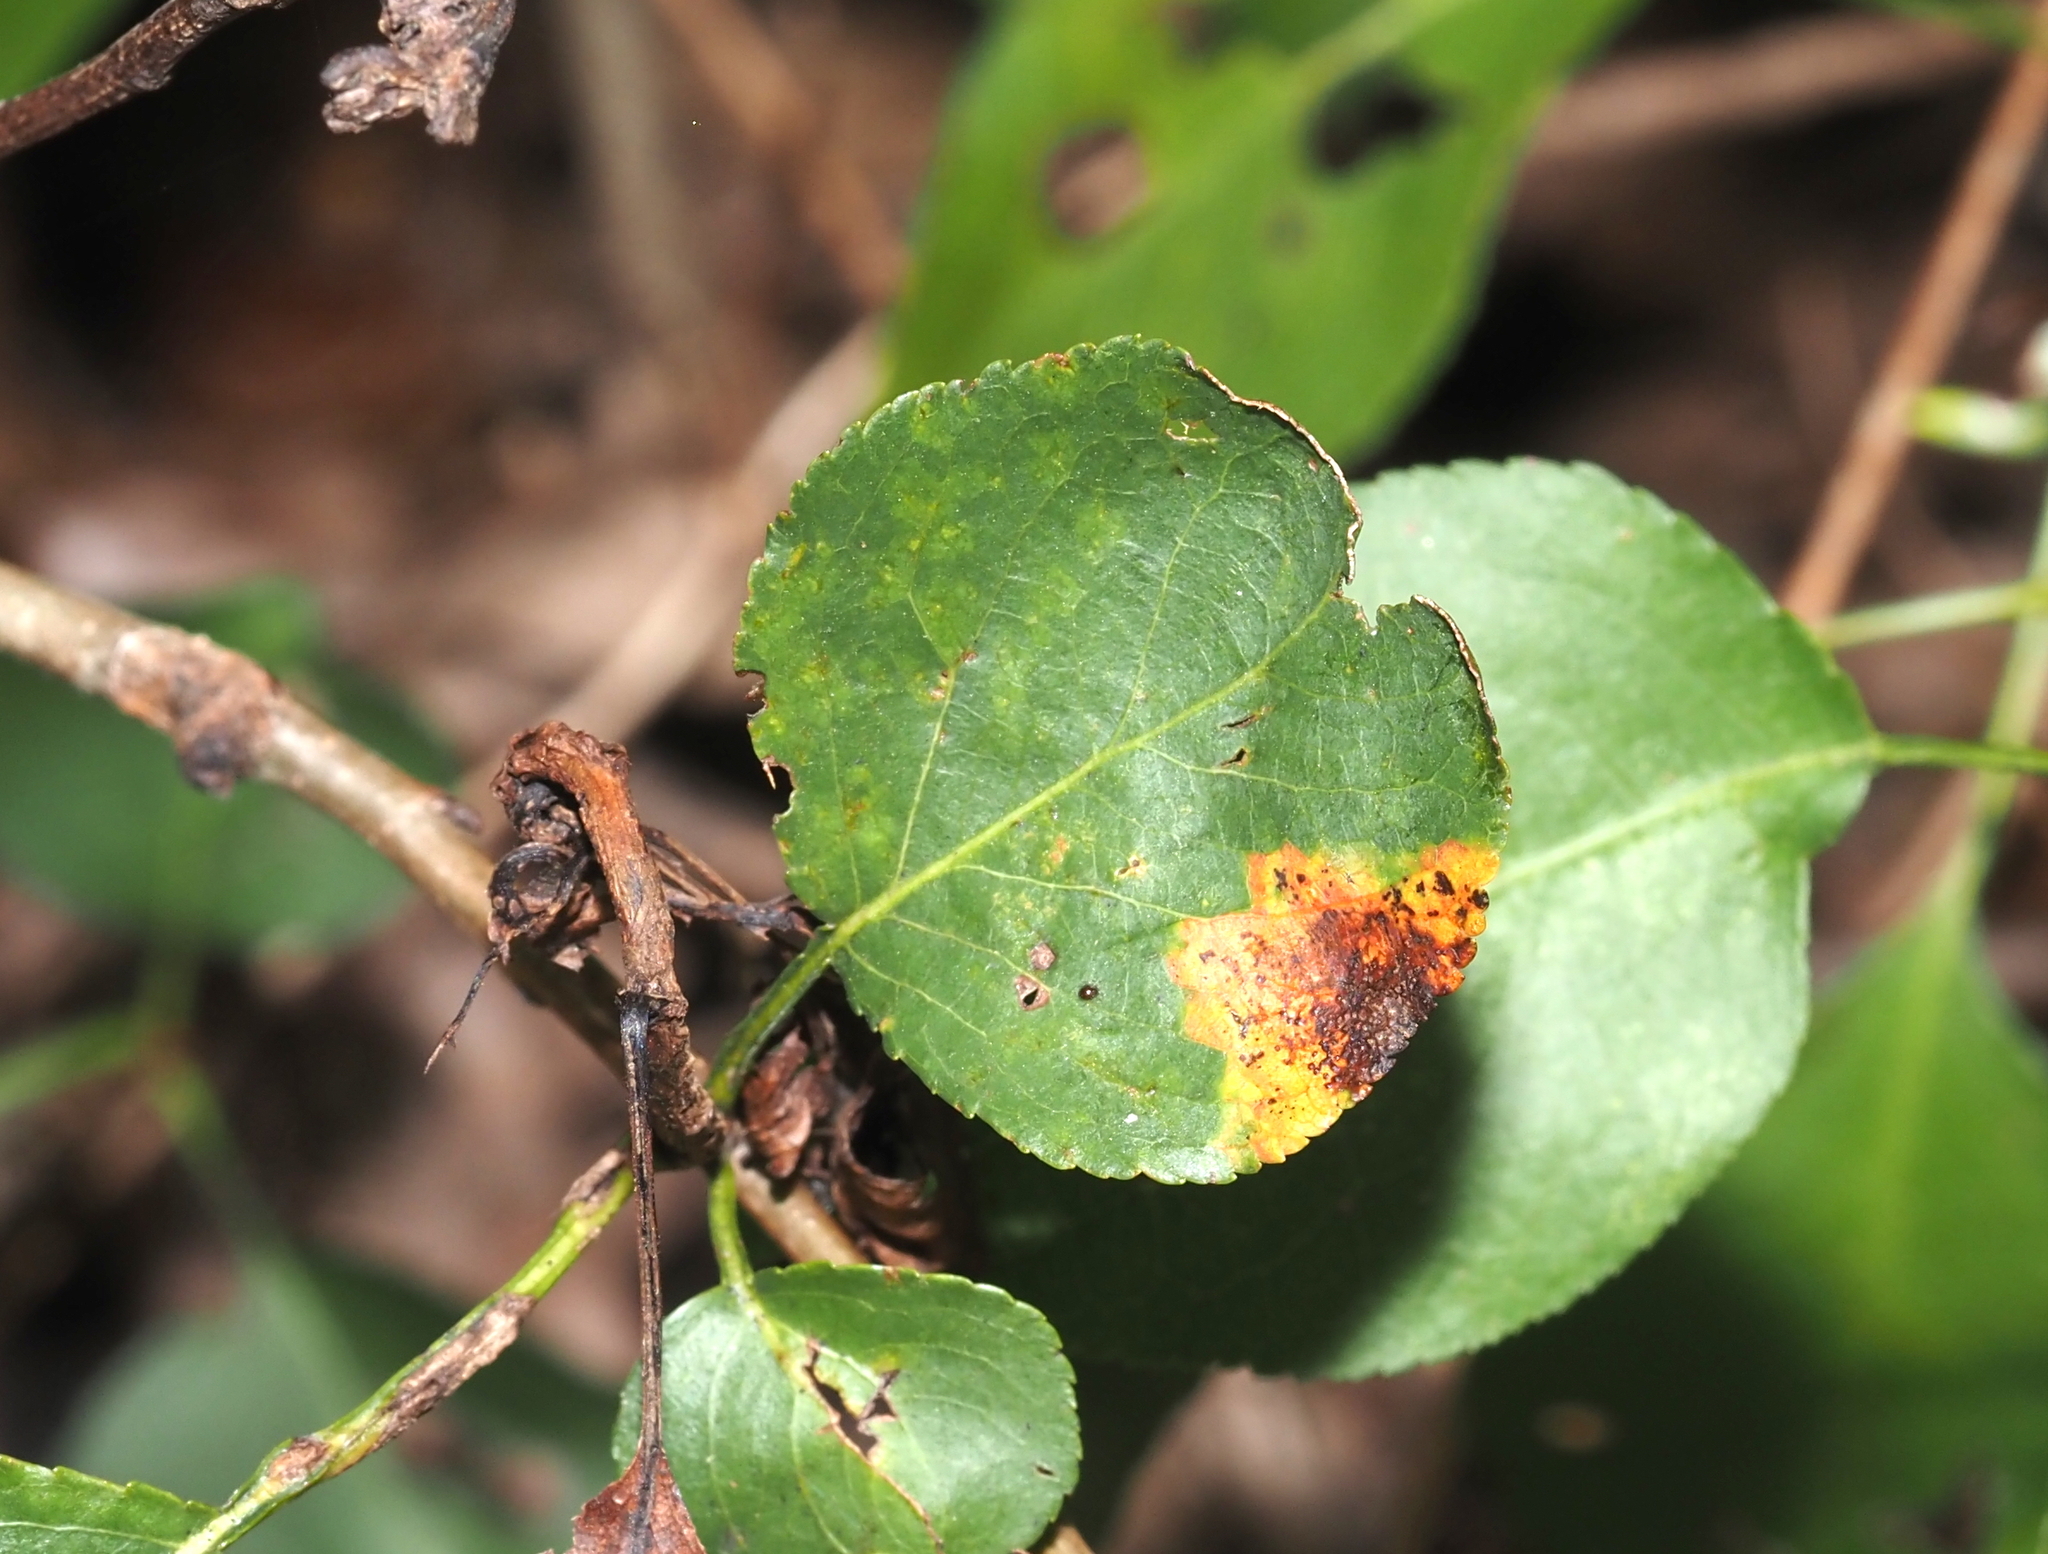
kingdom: Fungi
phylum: Basidiomycota
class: Pucciniomycetes
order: Pucciniales
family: Gymnosporangiaceae
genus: Gymnosporangium
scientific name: Gymnosporangium clavipes
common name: Quince rust
